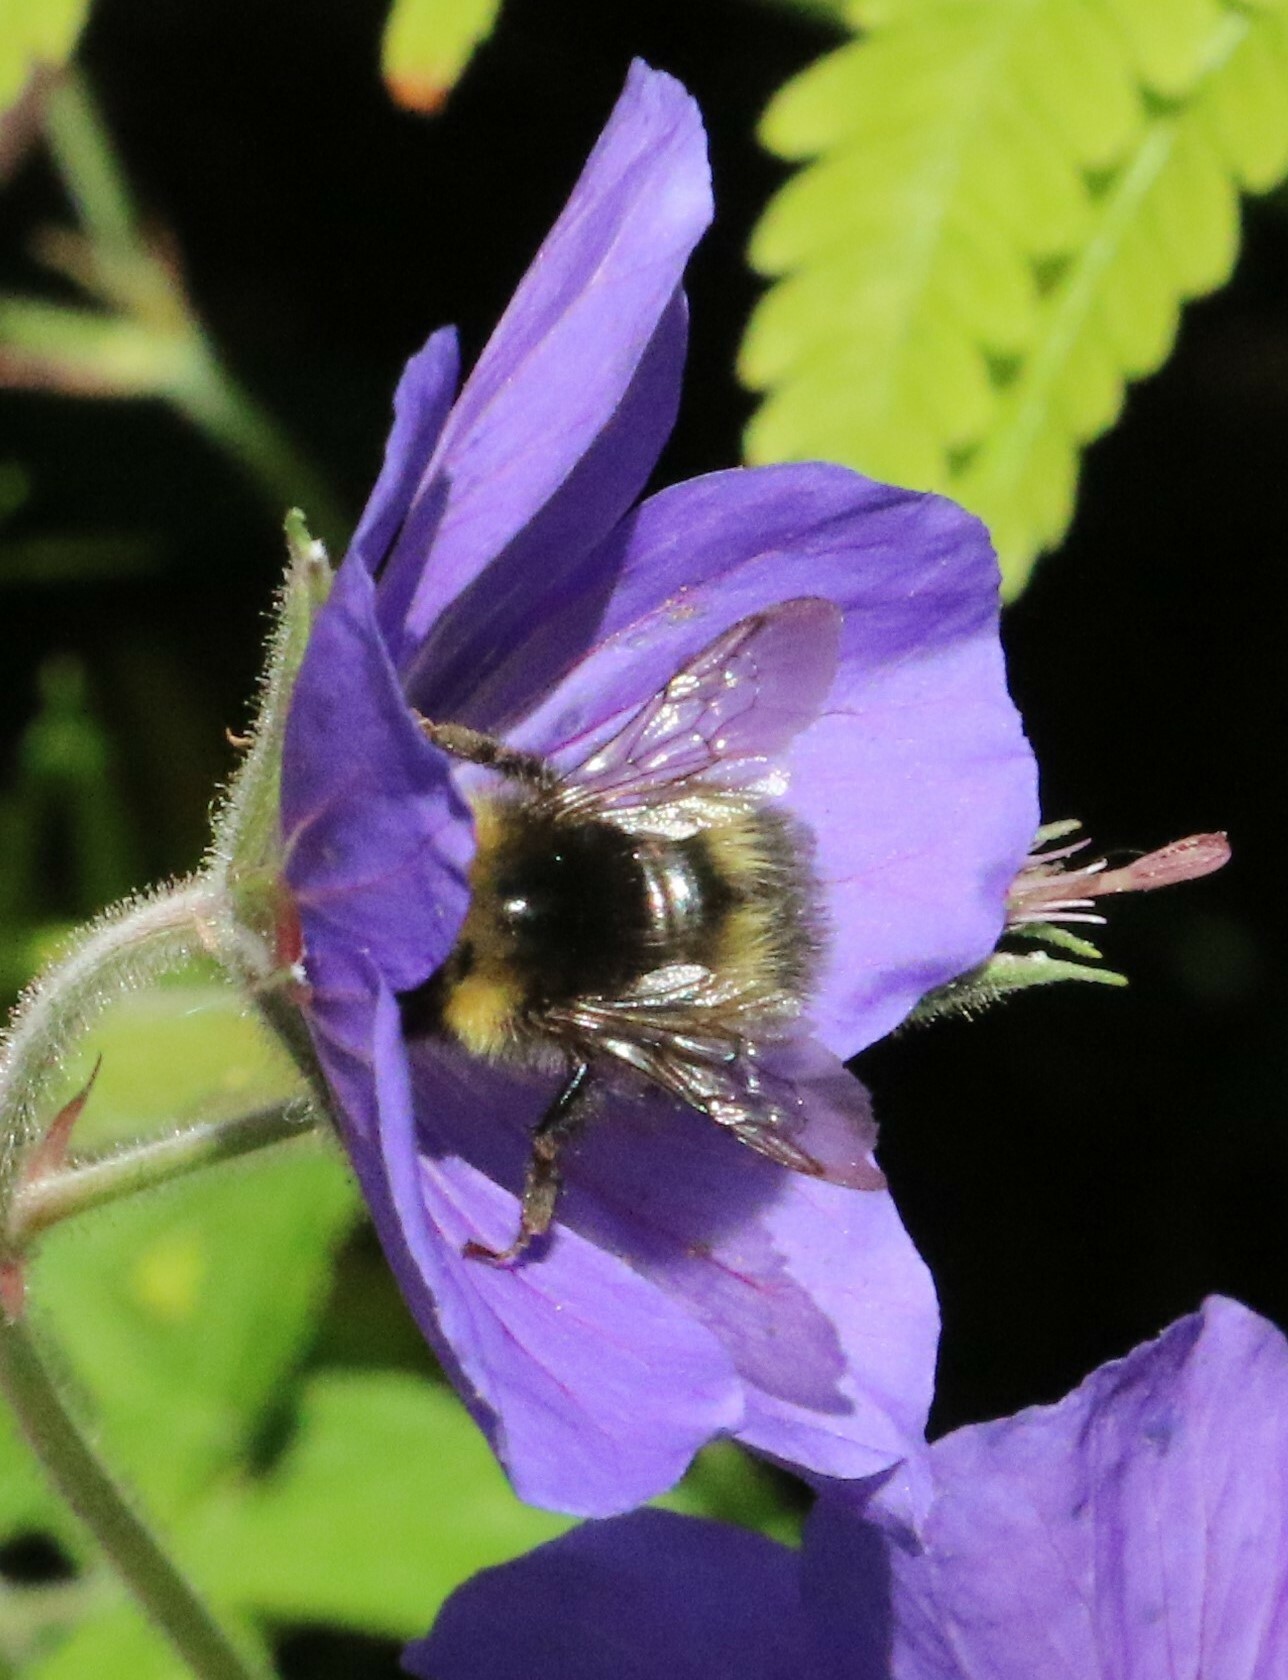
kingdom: Animalia
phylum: Arthropoda
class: Insecta
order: Hymenoptera
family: Apidae
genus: Bombus
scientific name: Bombus pratorum
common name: Early humble-bee
